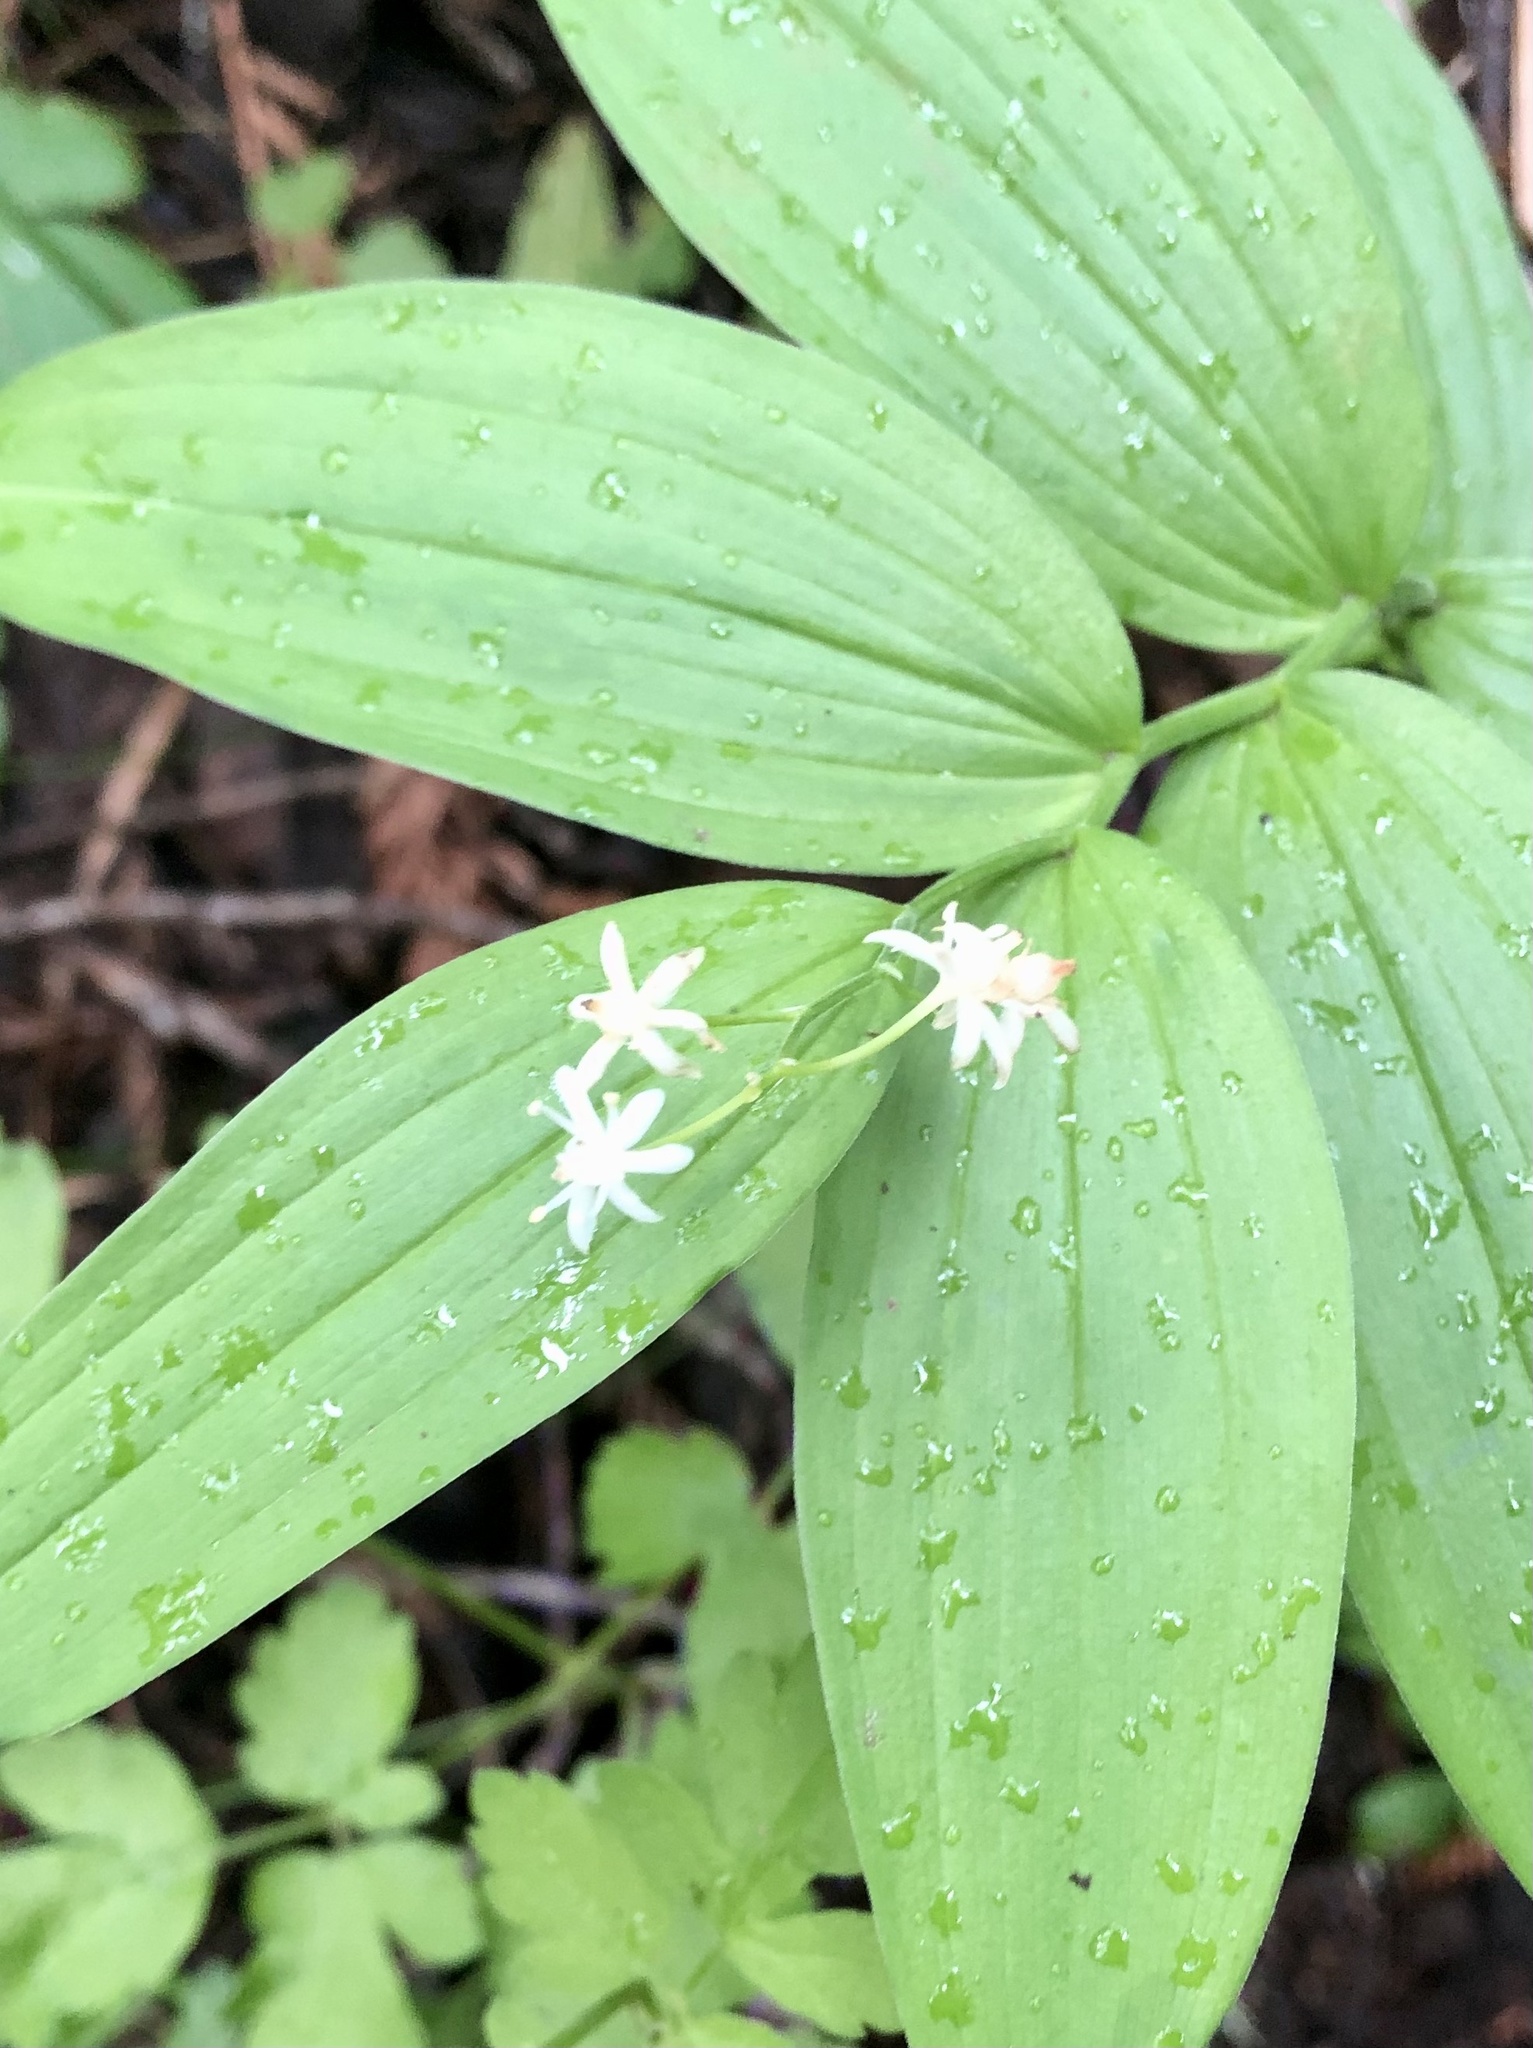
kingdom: Plantae
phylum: Tracheophyta
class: Liliopsida
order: Asparagales
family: Asparagaceae
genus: Maianthemum
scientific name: Maianthemum stellatum
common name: Little false solomon's seal
